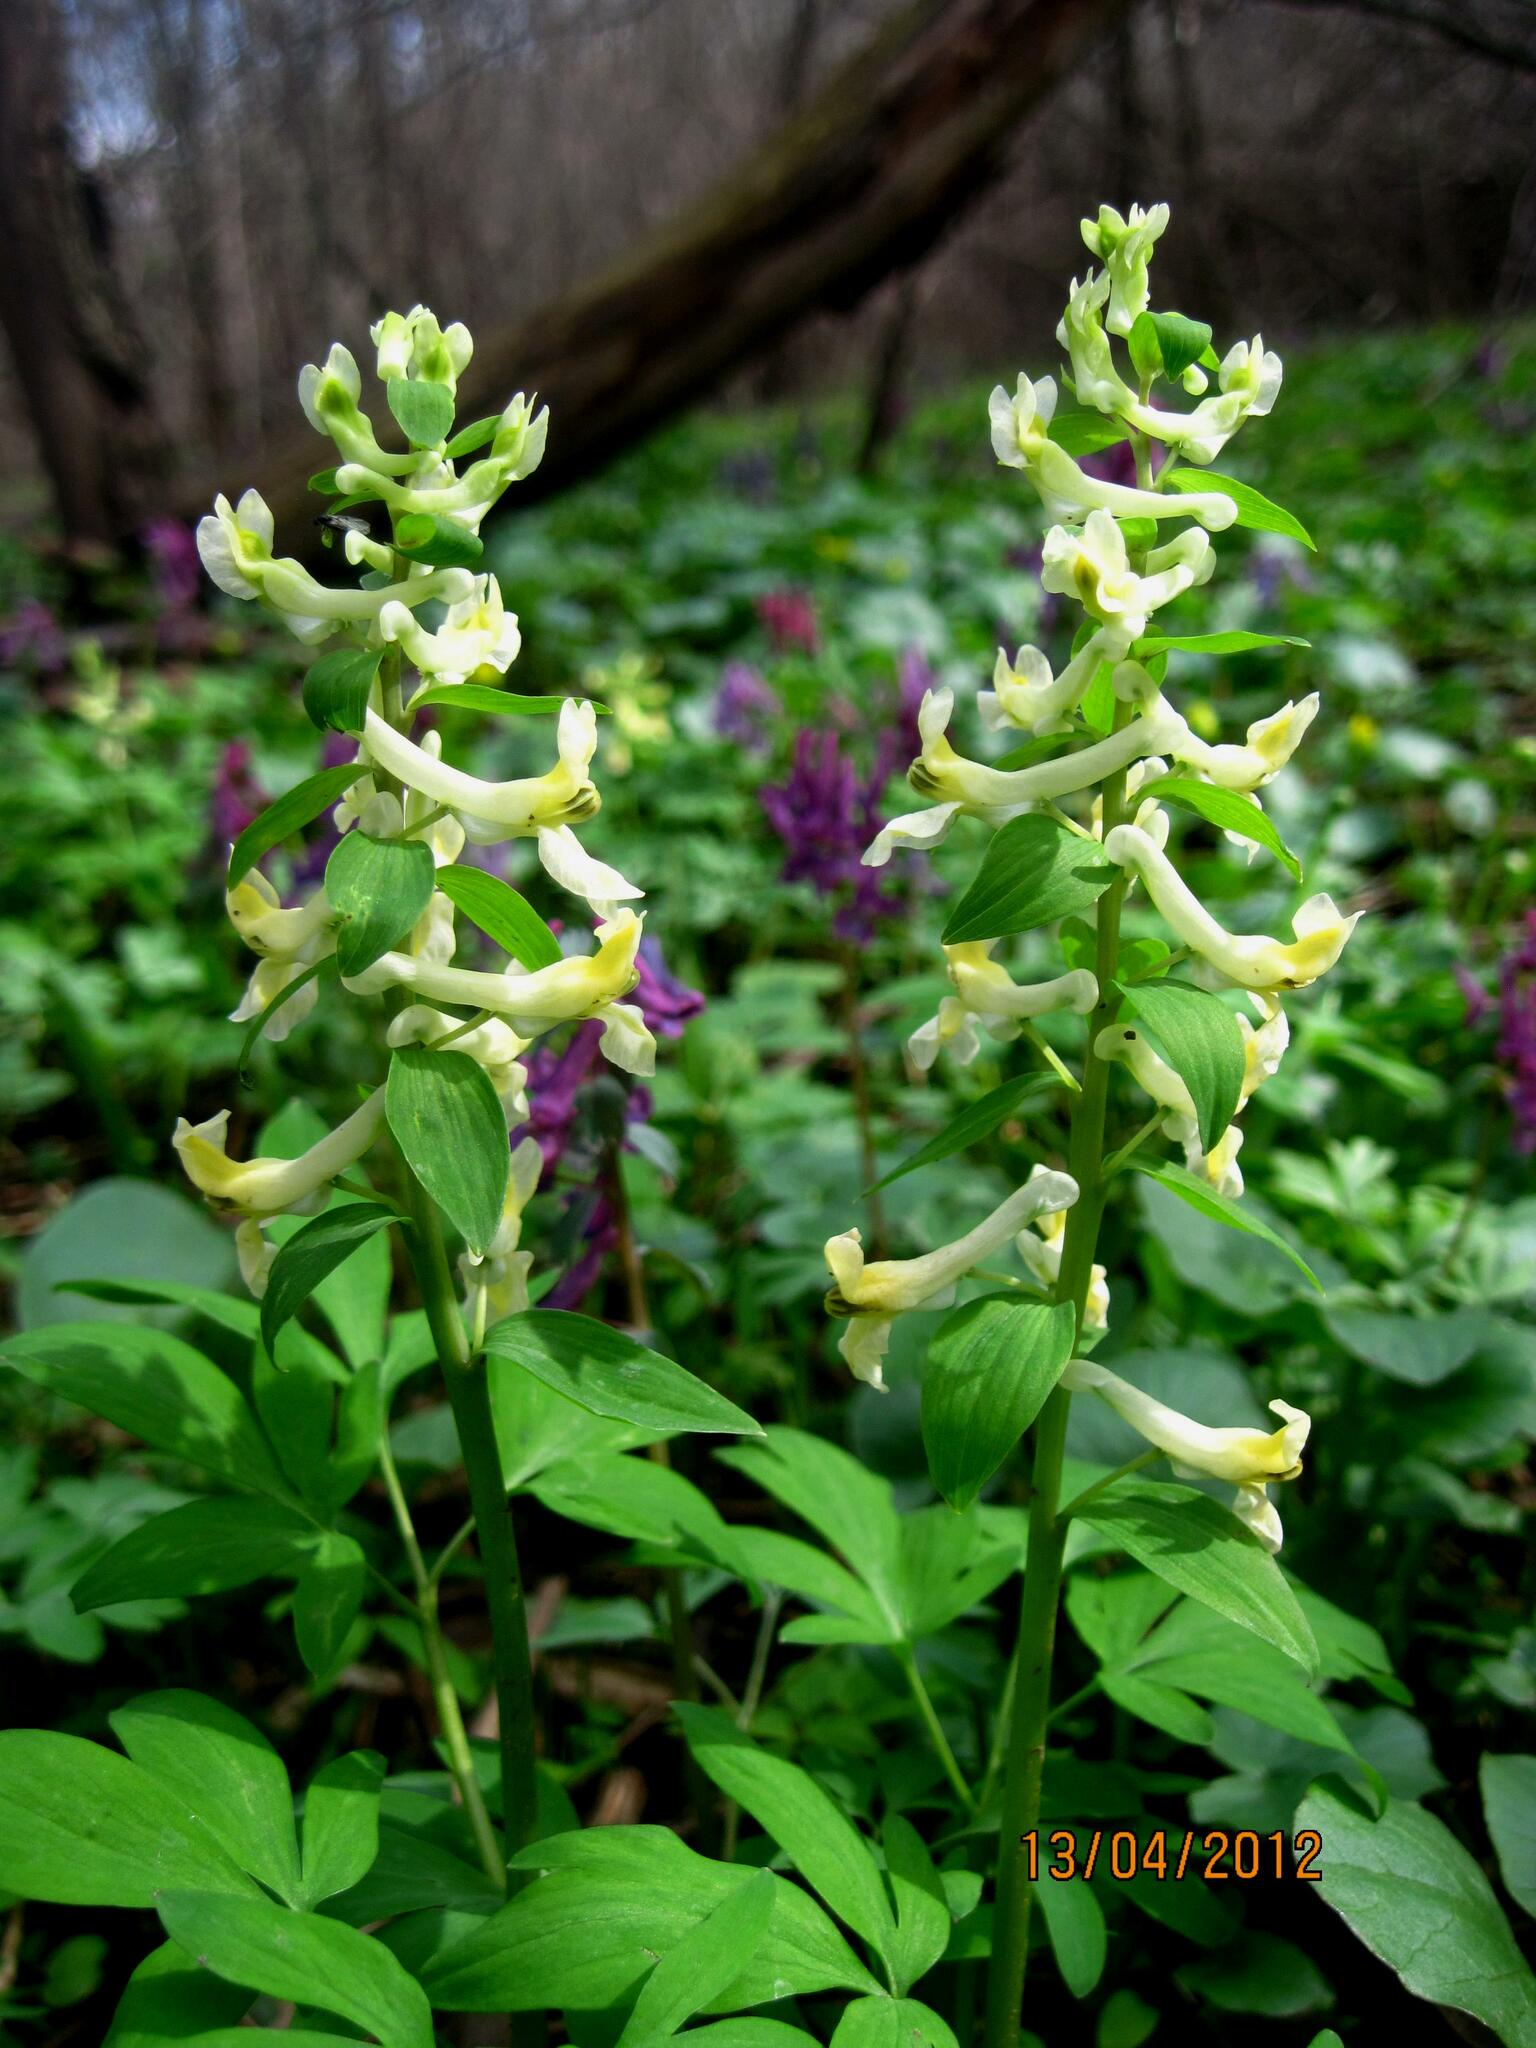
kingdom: Plantae
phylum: Tracheophyta
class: Magnoliopsida
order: Ranunculales
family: Papaveraceae
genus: Corydalis
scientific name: Corydalis cava
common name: Hollowroot
